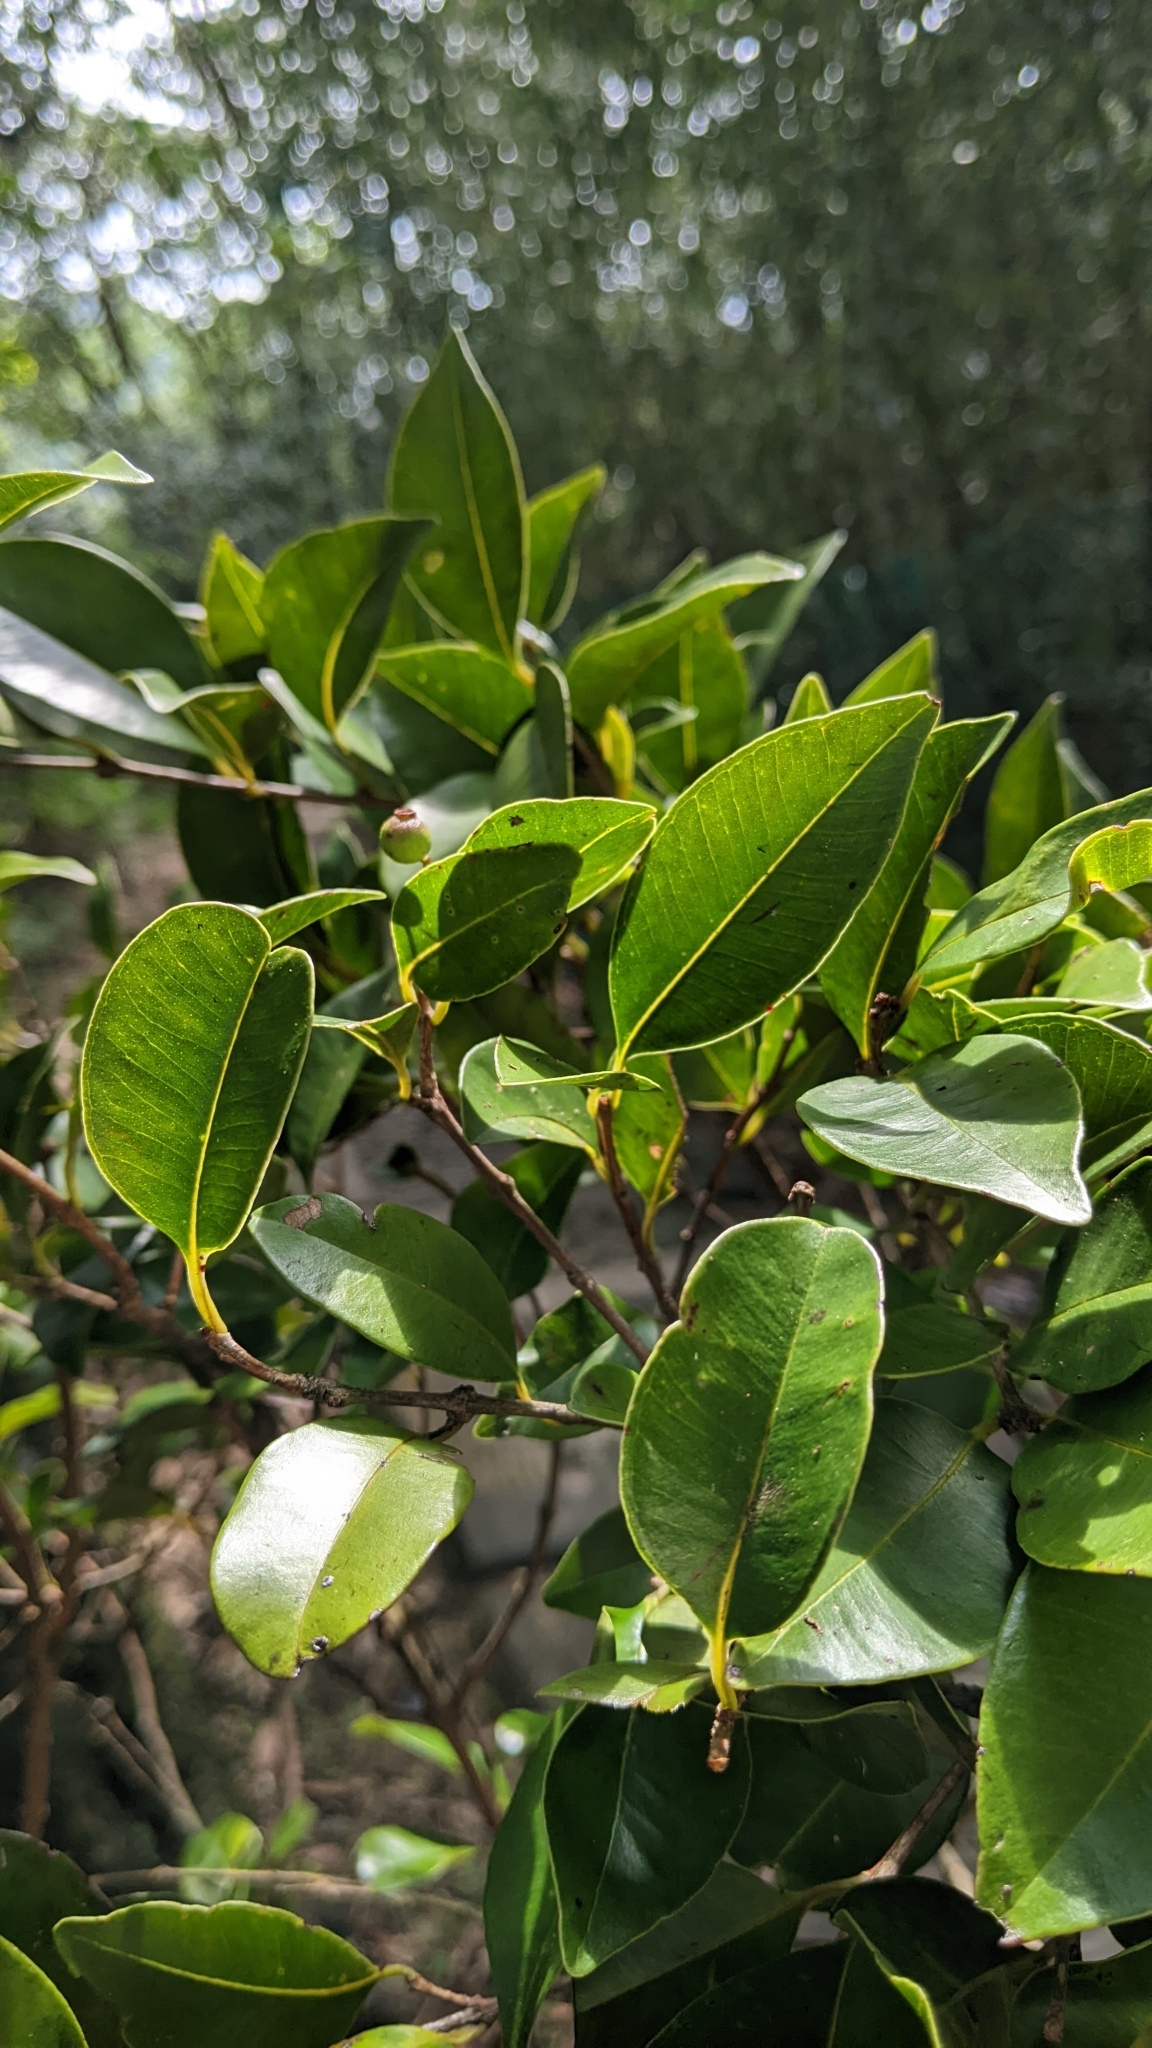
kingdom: Plantae
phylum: Tracheophyta
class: Magnoliopsida
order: Myrtales
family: Myrtaceae
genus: Syzygium
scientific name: Syzygium formosanum
